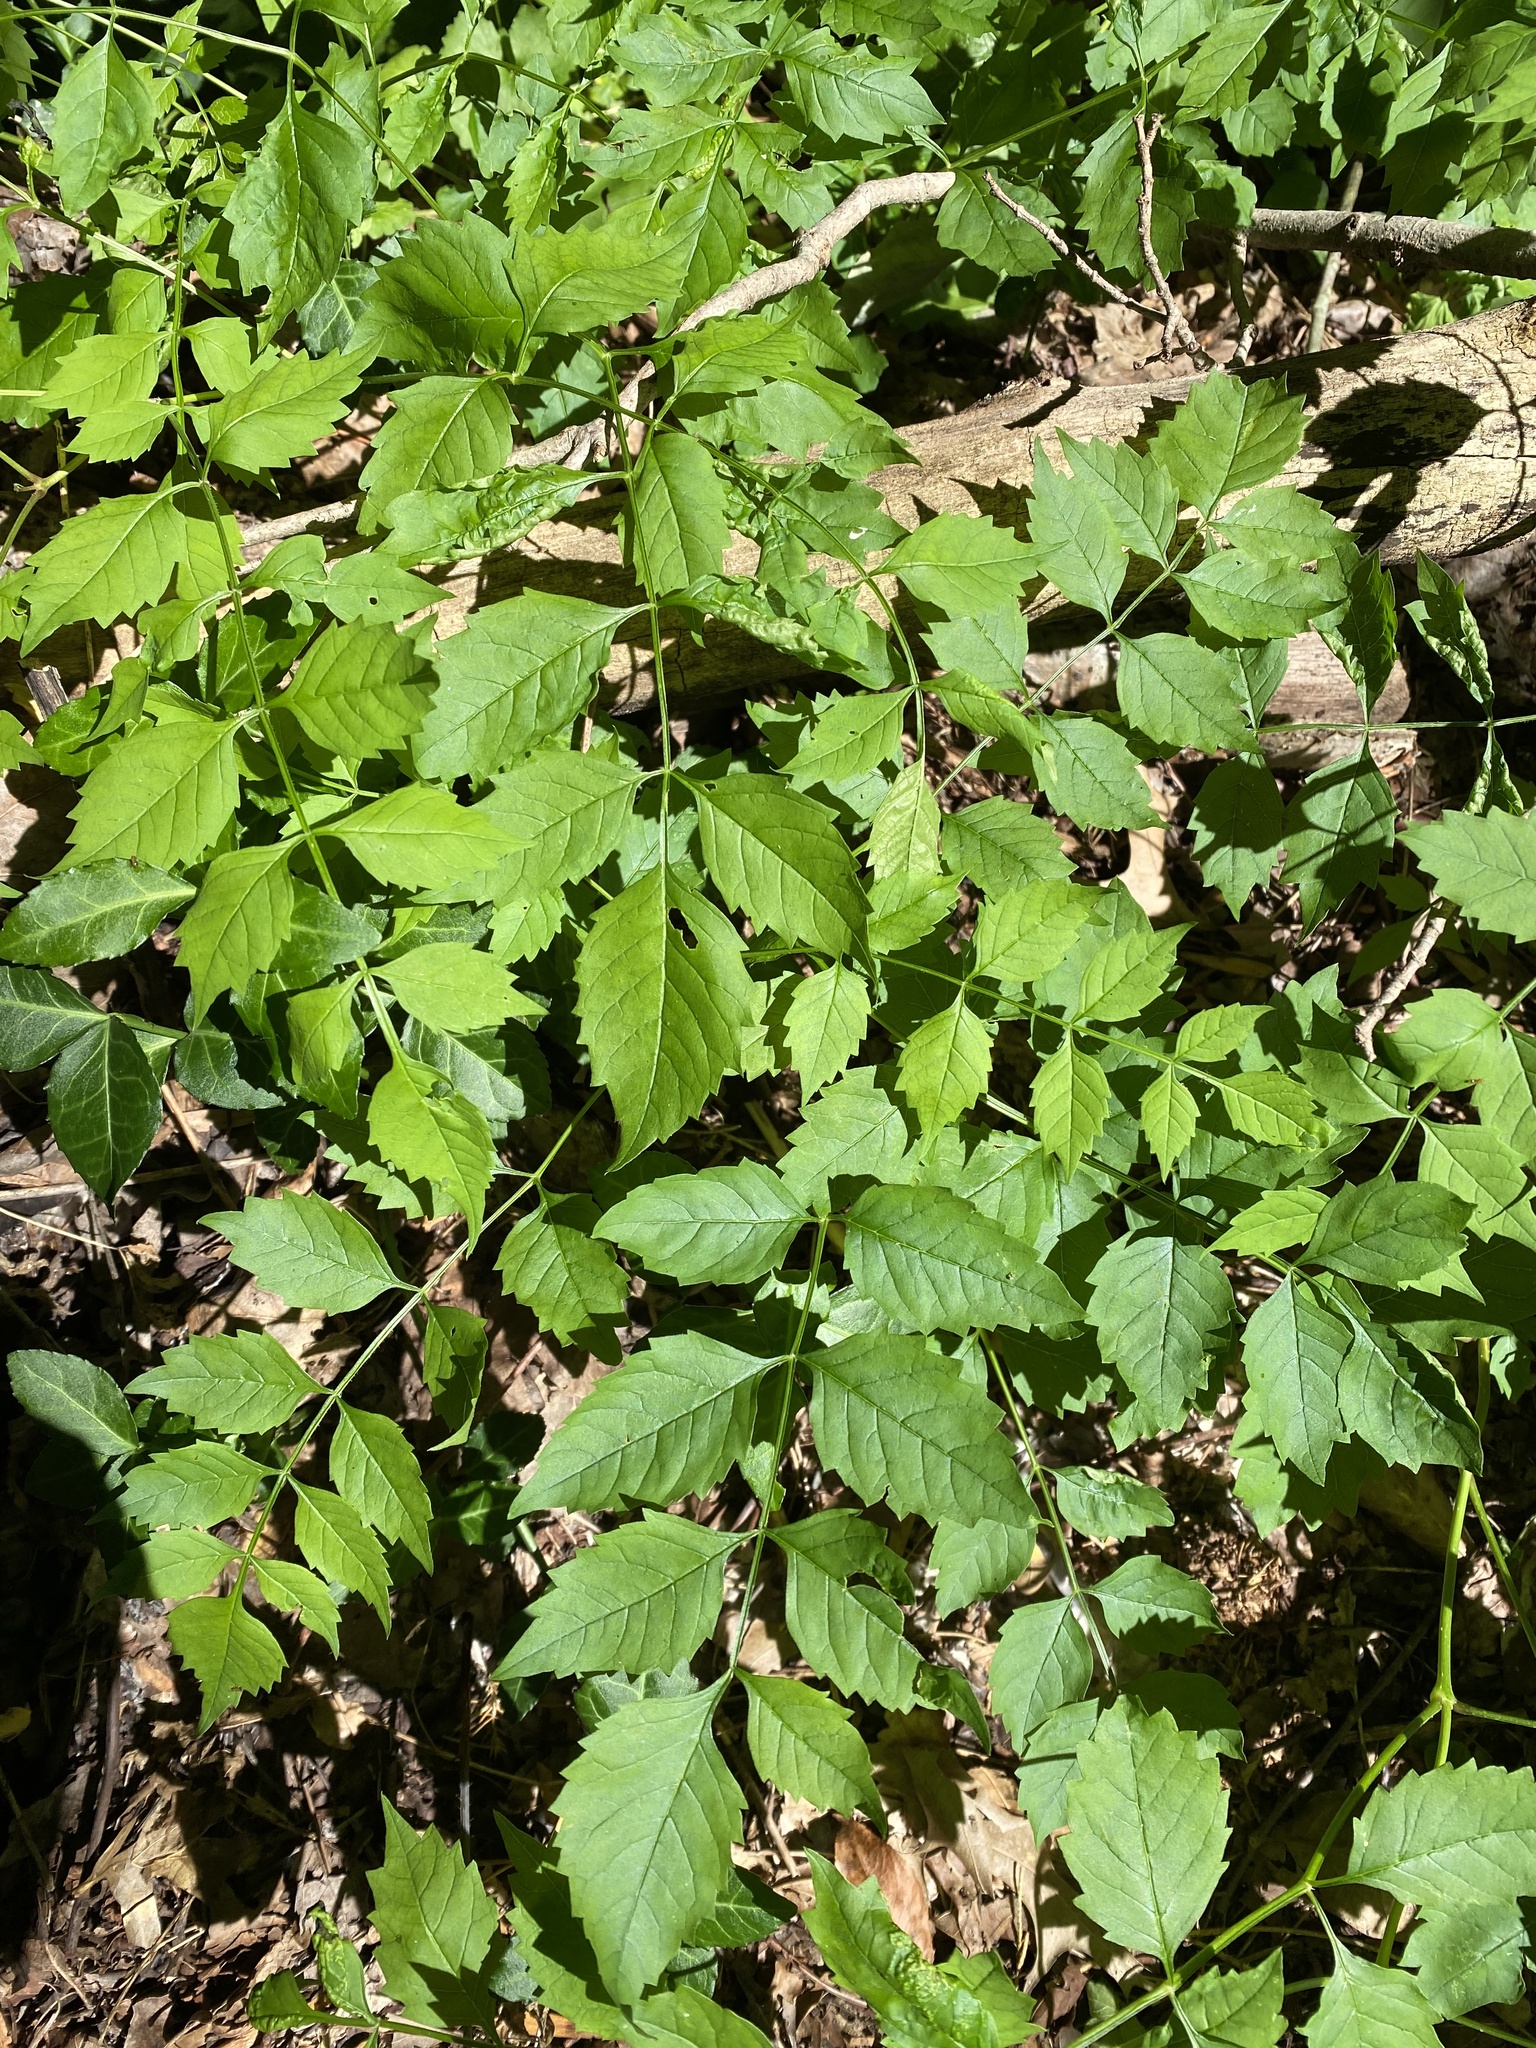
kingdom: Plantae
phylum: Tracheophyta
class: Magnoliopsida
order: Lamiales
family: Bignoniaceae
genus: Campsis
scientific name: Campsis radicans
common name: Trumpet-creeper
